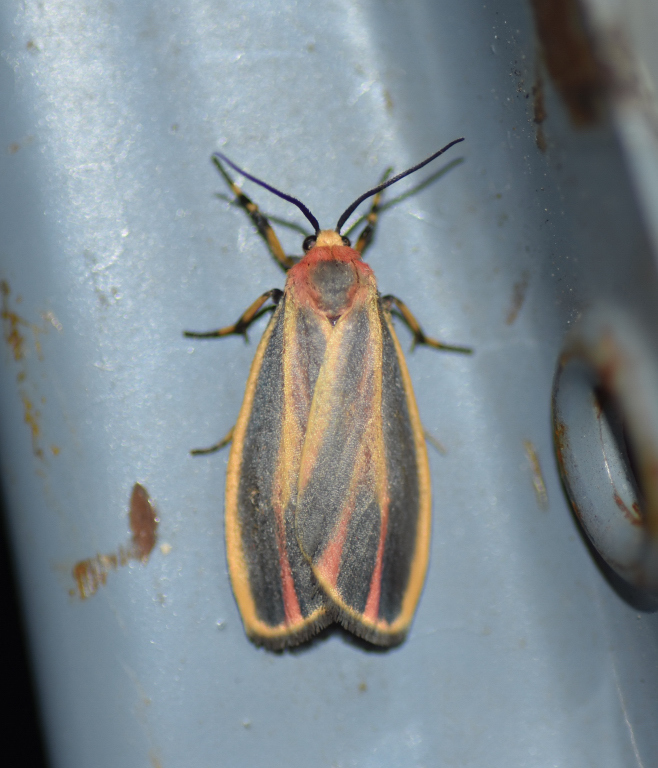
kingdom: Animalia
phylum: Arthropoda
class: Insecta
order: Lepidoptera
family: Erebidae
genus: Hypoprepia
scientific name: Hypoprepia fucosa
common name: Painted lichen moth
